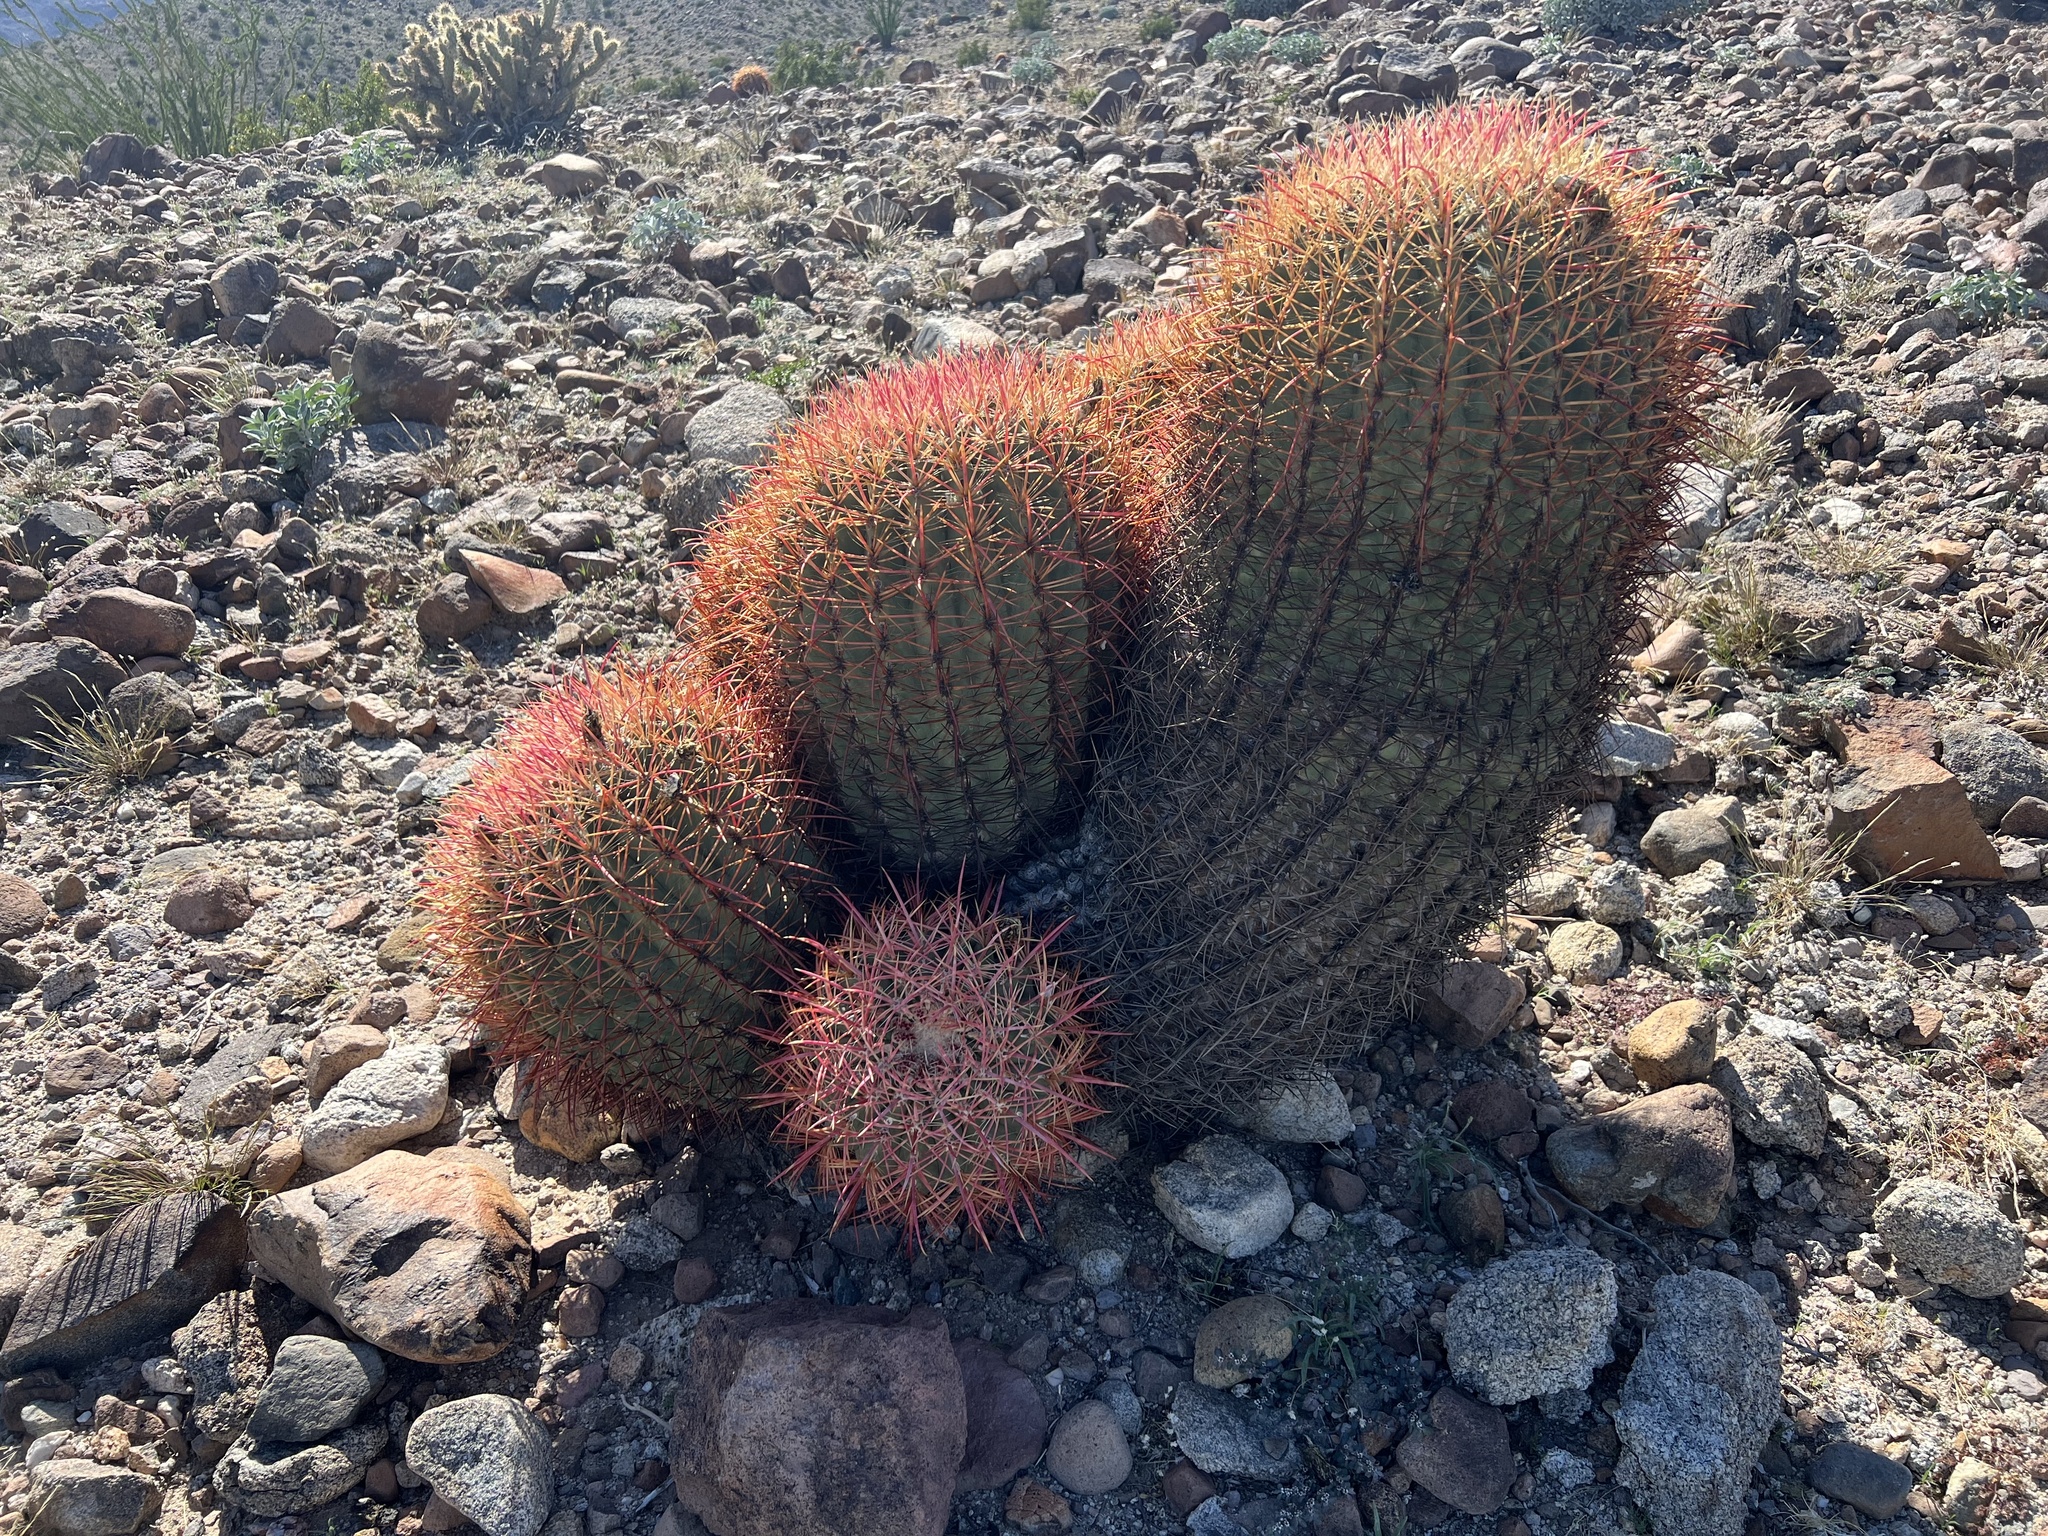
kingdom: Plantae
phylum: Tracheophyta
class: Magnoliopsida
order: Caryophyllales
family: Cactaceae
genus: Ferocactus
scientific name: Ferocactus cylindraceus
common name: California barrel cactus
